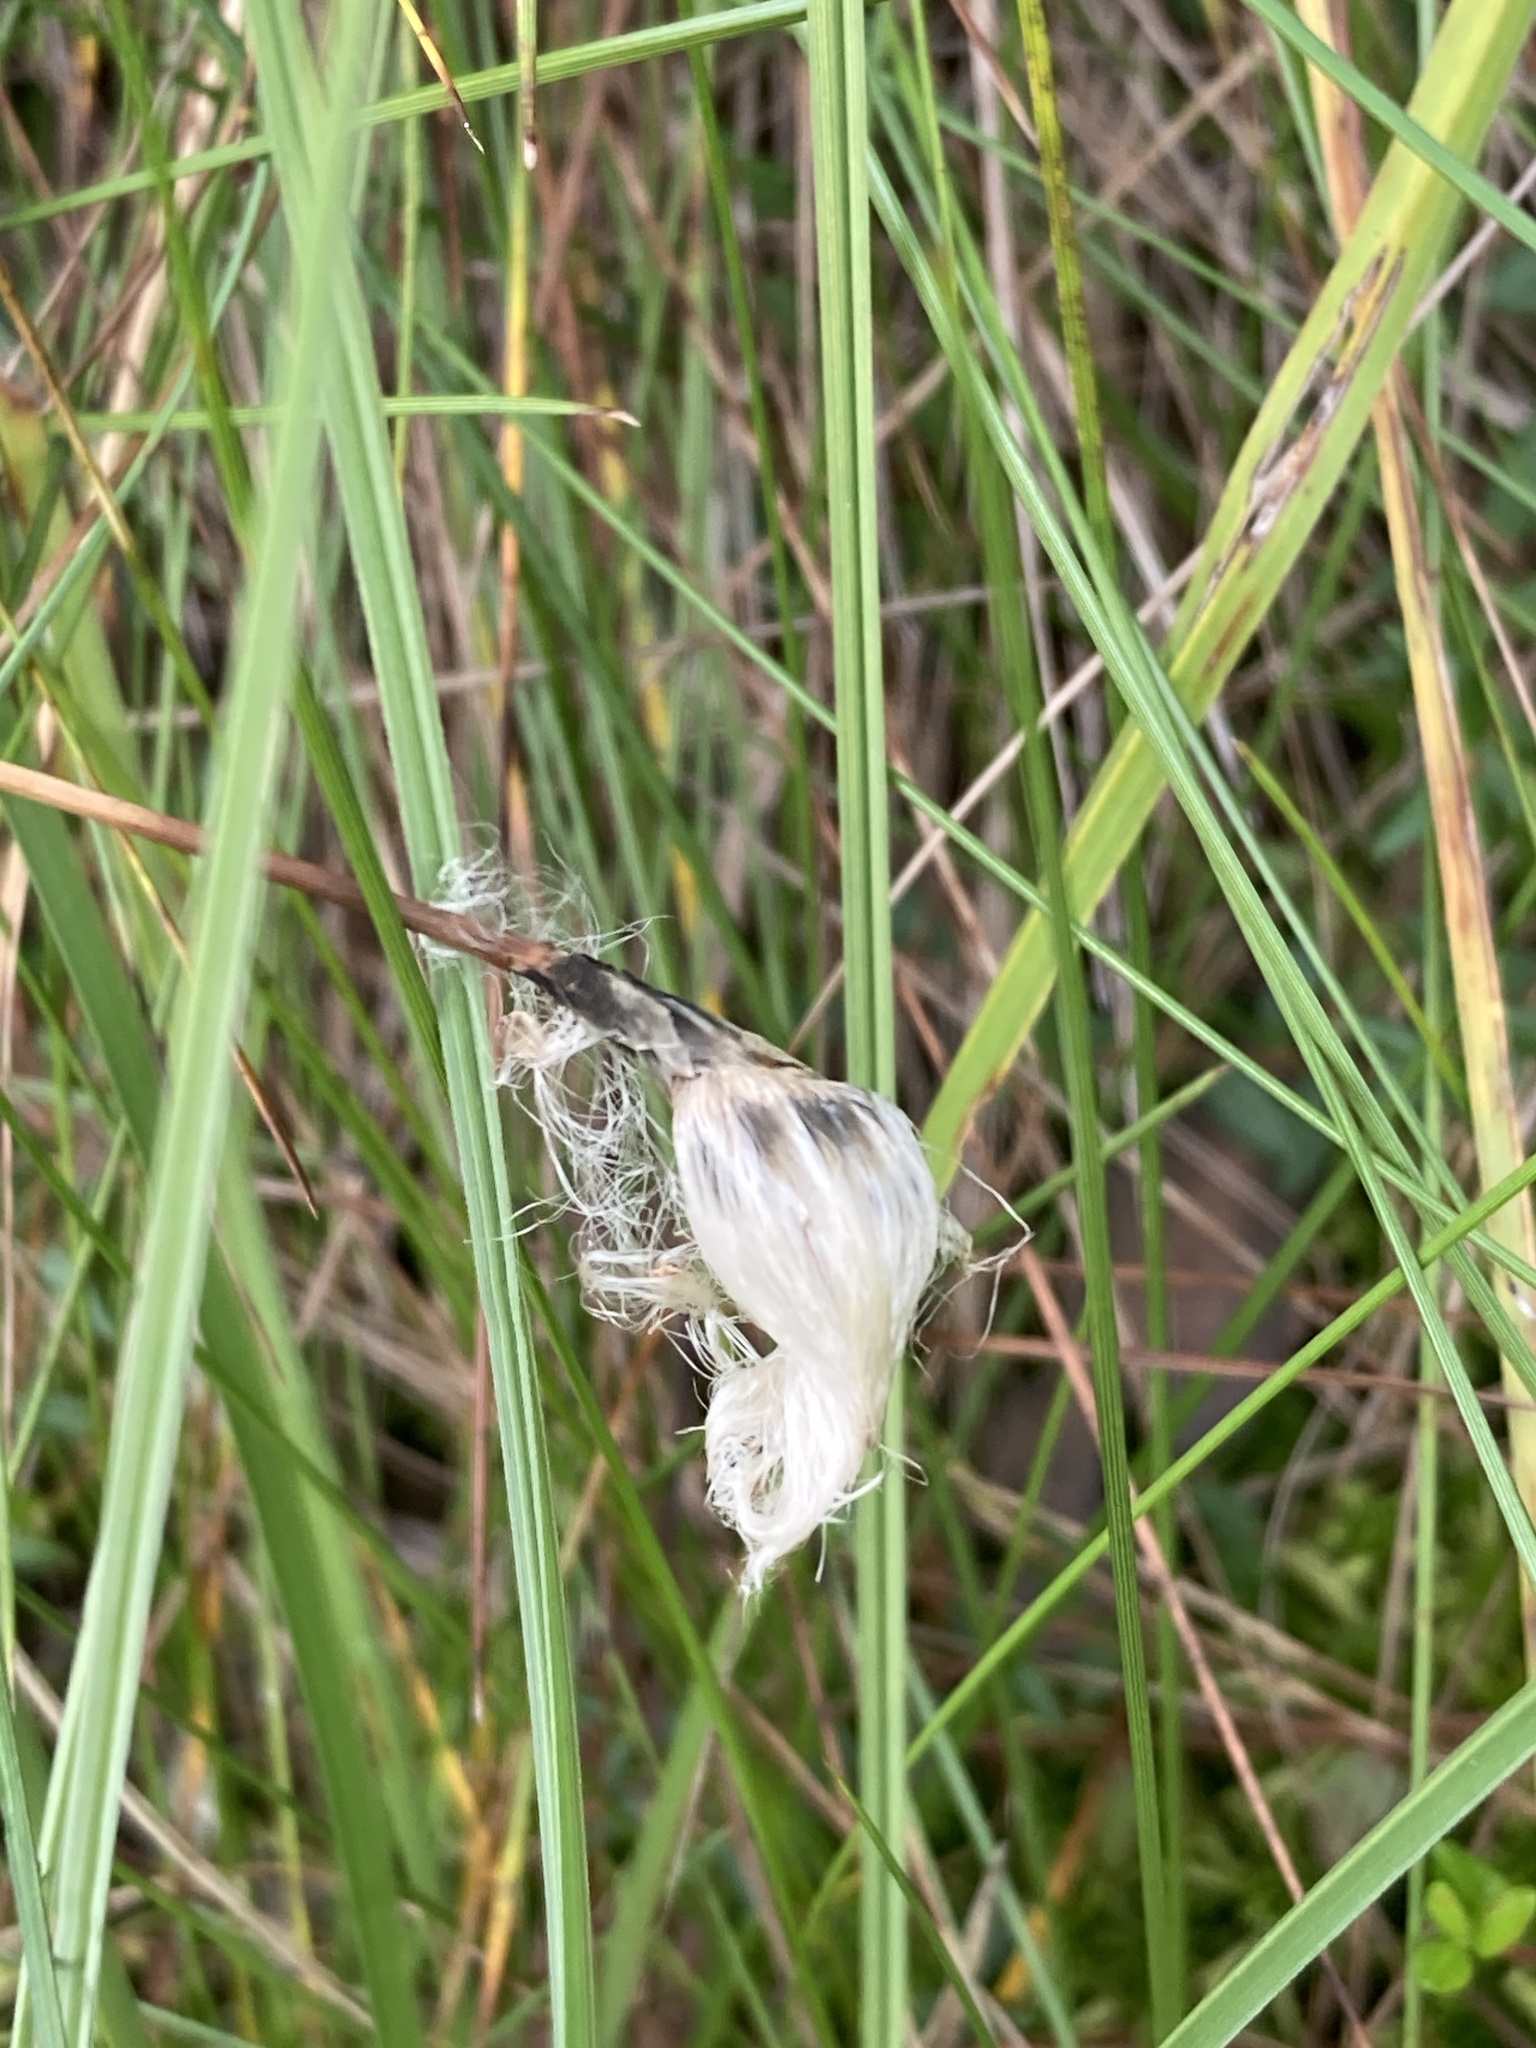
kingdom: Plantae
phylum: Tracheophyta
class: Liliopsida
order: Poales
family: Cyperaceae
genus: Eriophorum
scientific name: Eriophorum vaginatum
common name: Hare's-tail cottongrass
